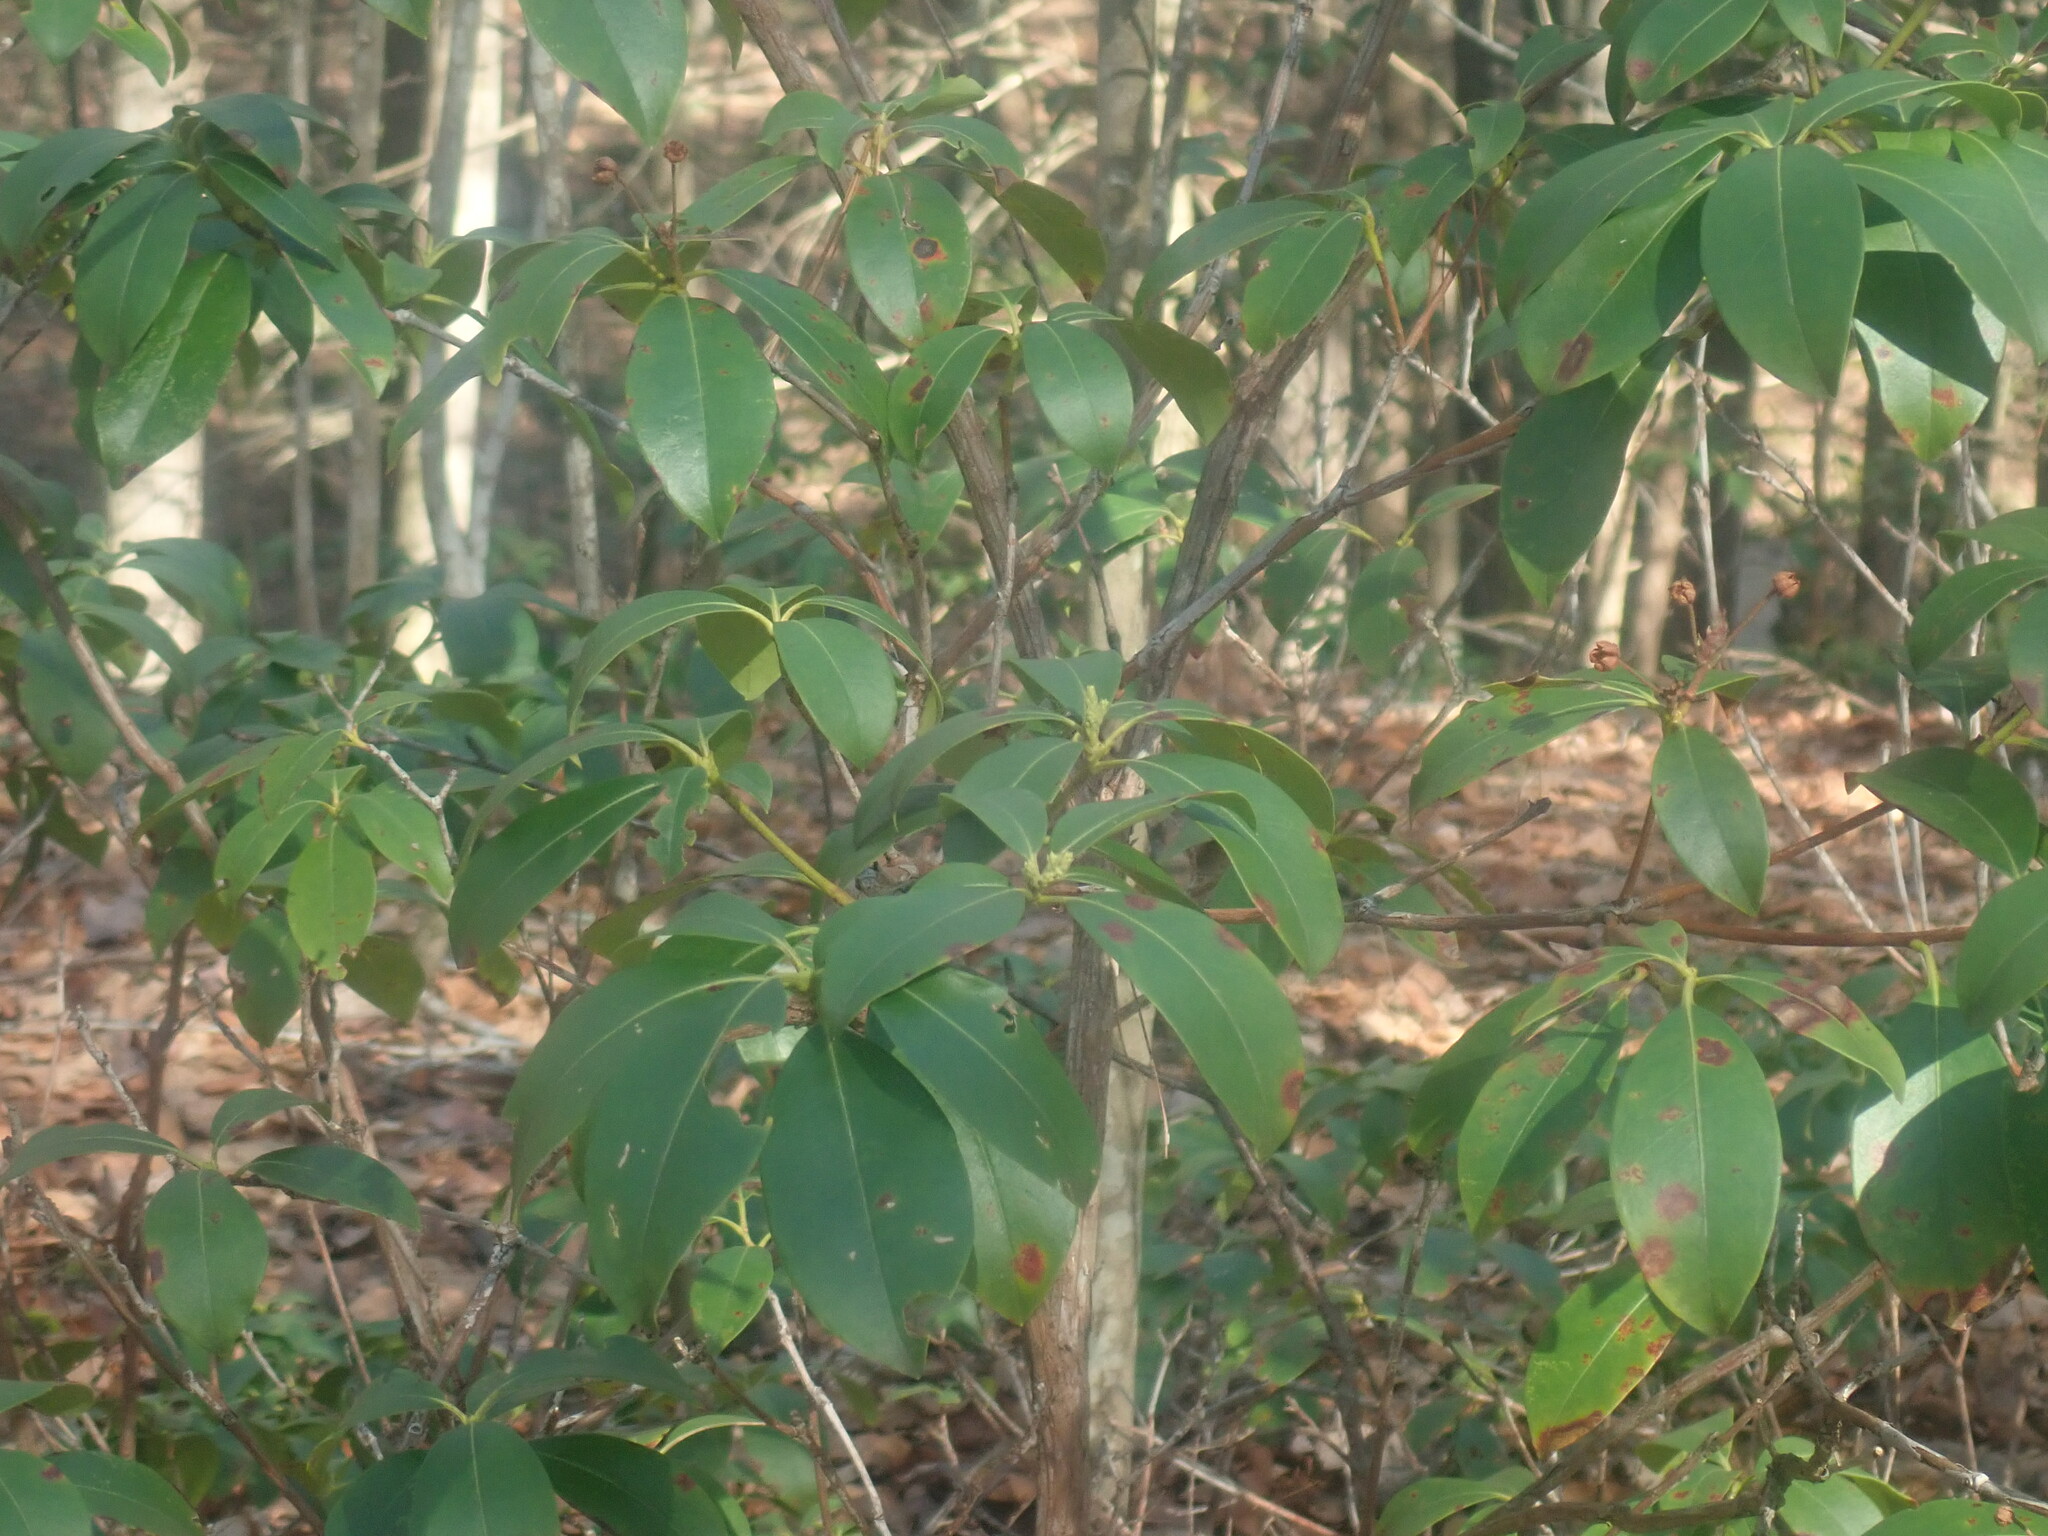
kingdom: Plantae
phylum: Tracheophyta
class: Magnoliopsida
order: Ericales
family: Ericaceae
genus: Kalmia
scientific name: Kalmia latifolia
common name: Mountain-laurel
